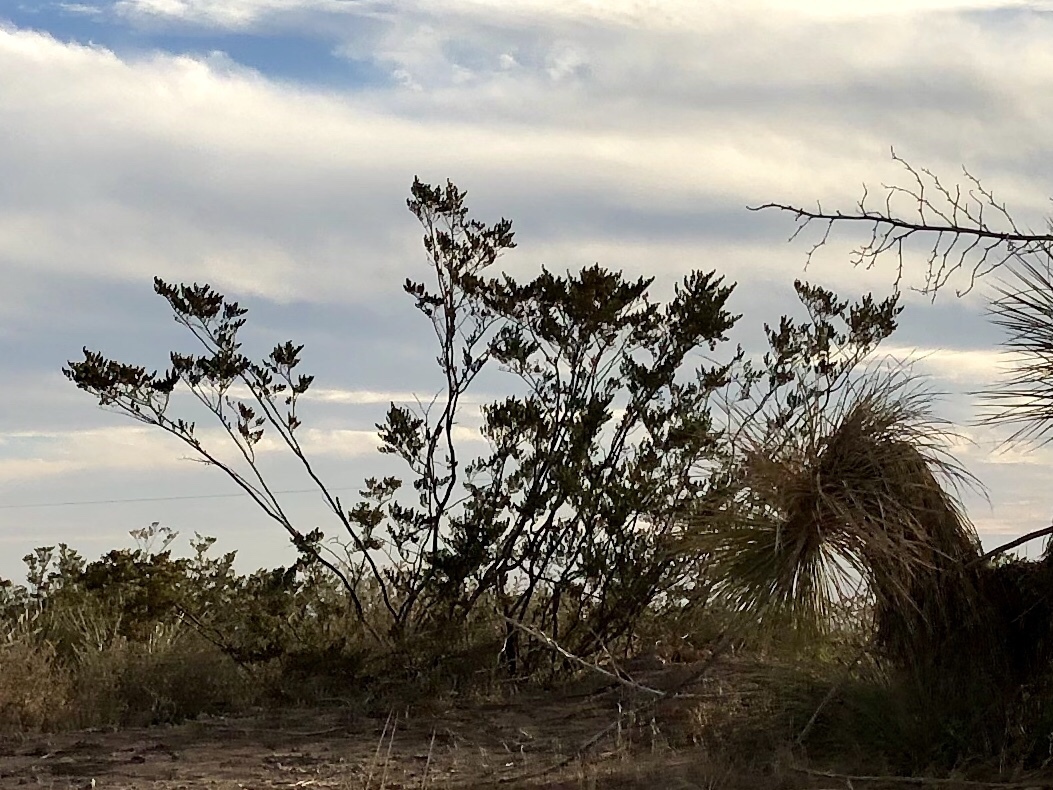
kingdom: Plantae
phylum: Tracheophyta
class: Magnoliopsida
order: Zygophyllales
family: Zygophyllaceae
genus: Larrea
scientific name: Larrea tridentata
